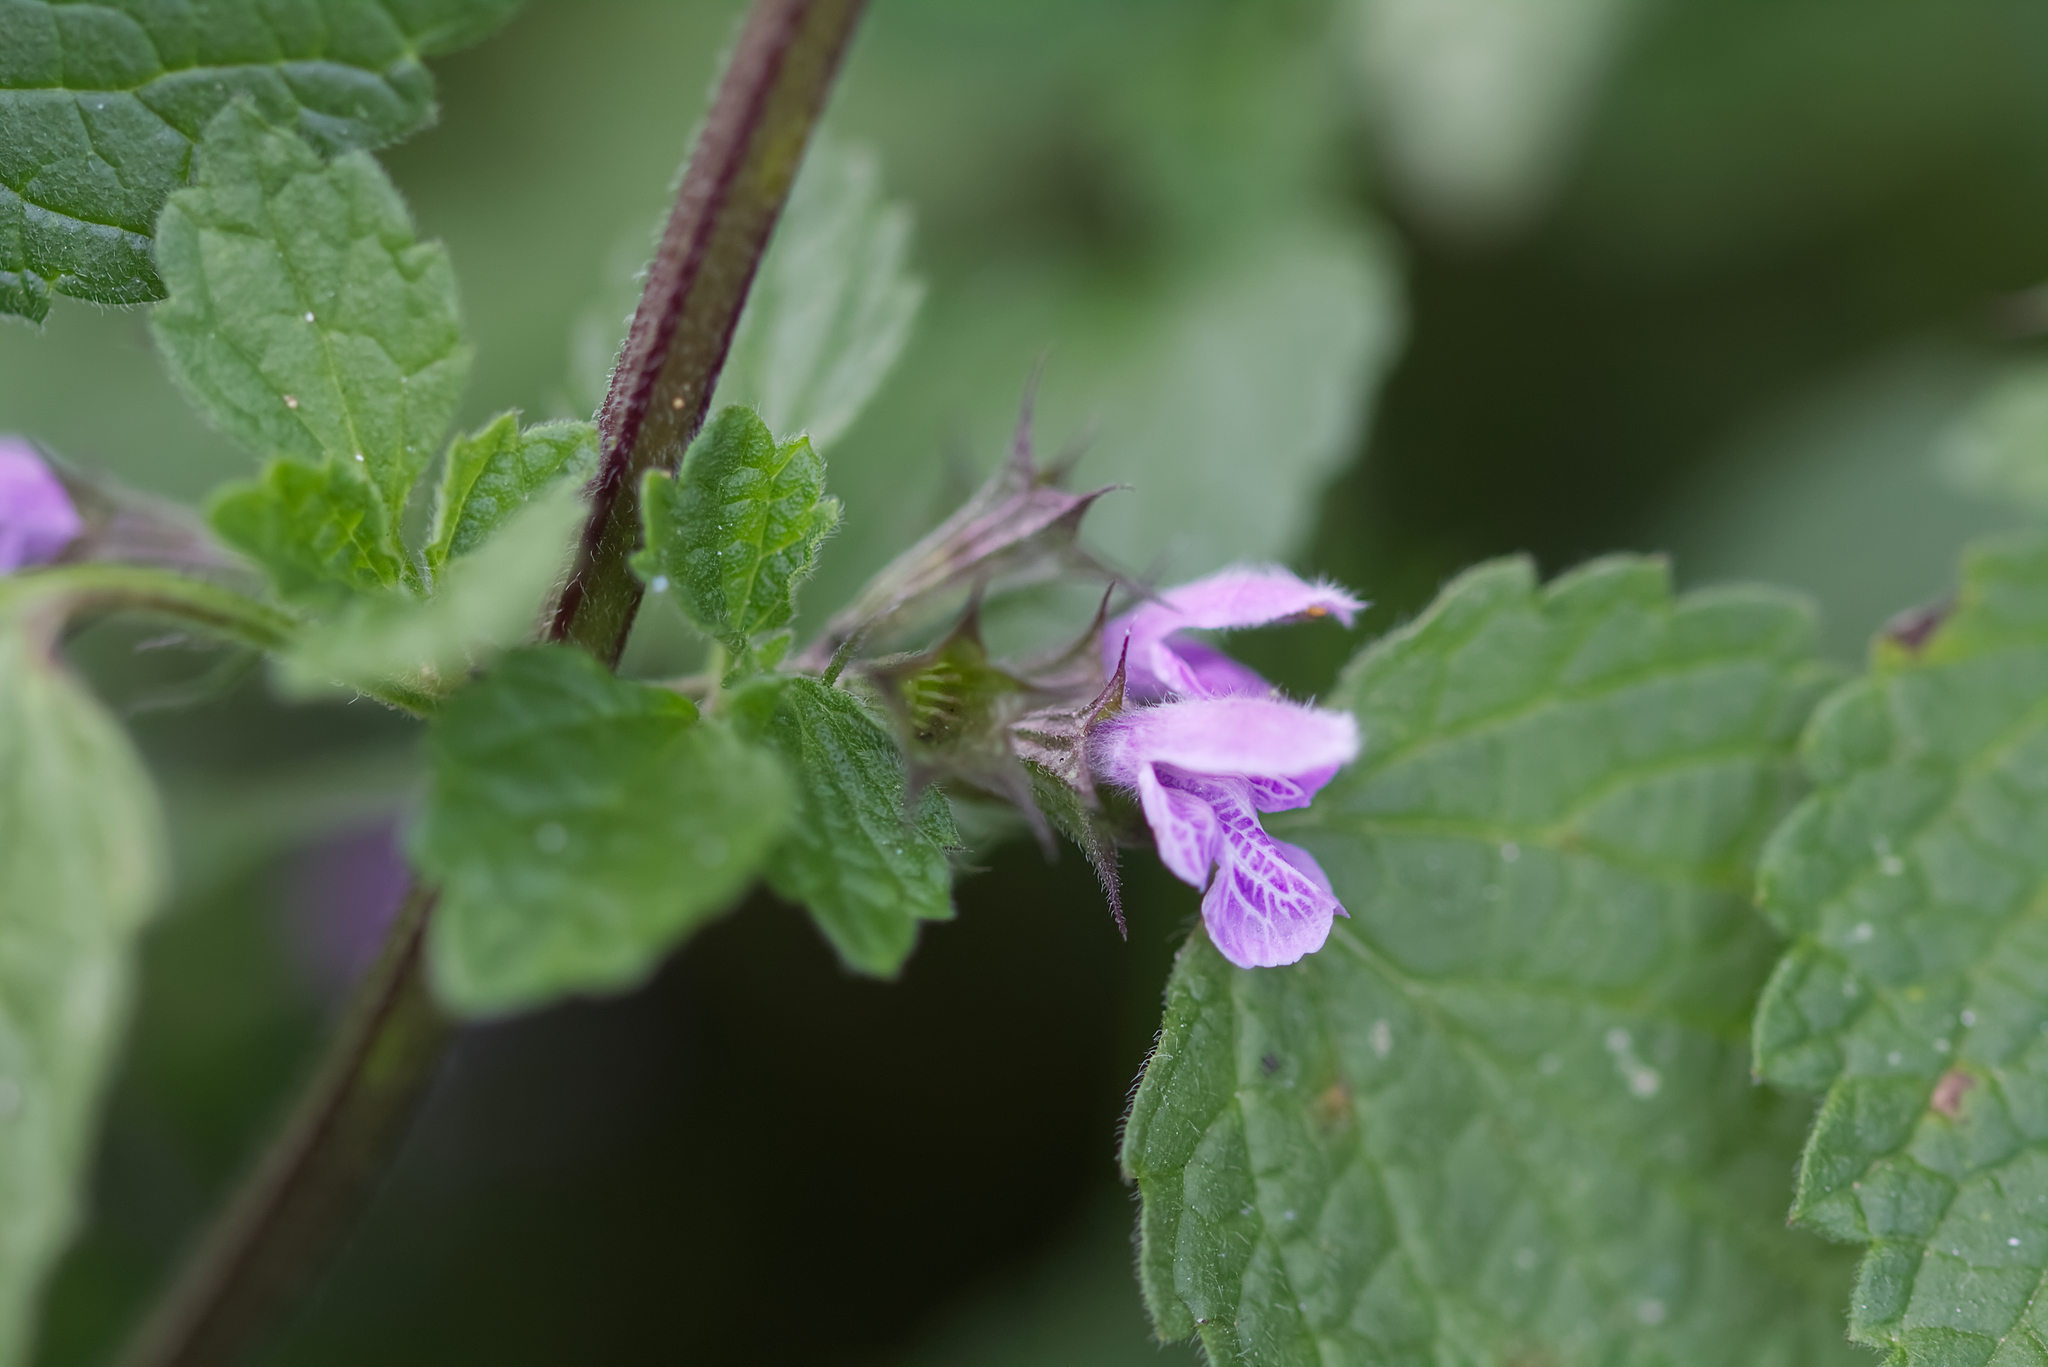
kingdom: Plantae
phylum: Tracheophyta
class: Magnoliopsida
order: Lamiales
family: Lamiaceae
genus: Ballota
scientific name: Ballota nigra
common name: Black horehound
